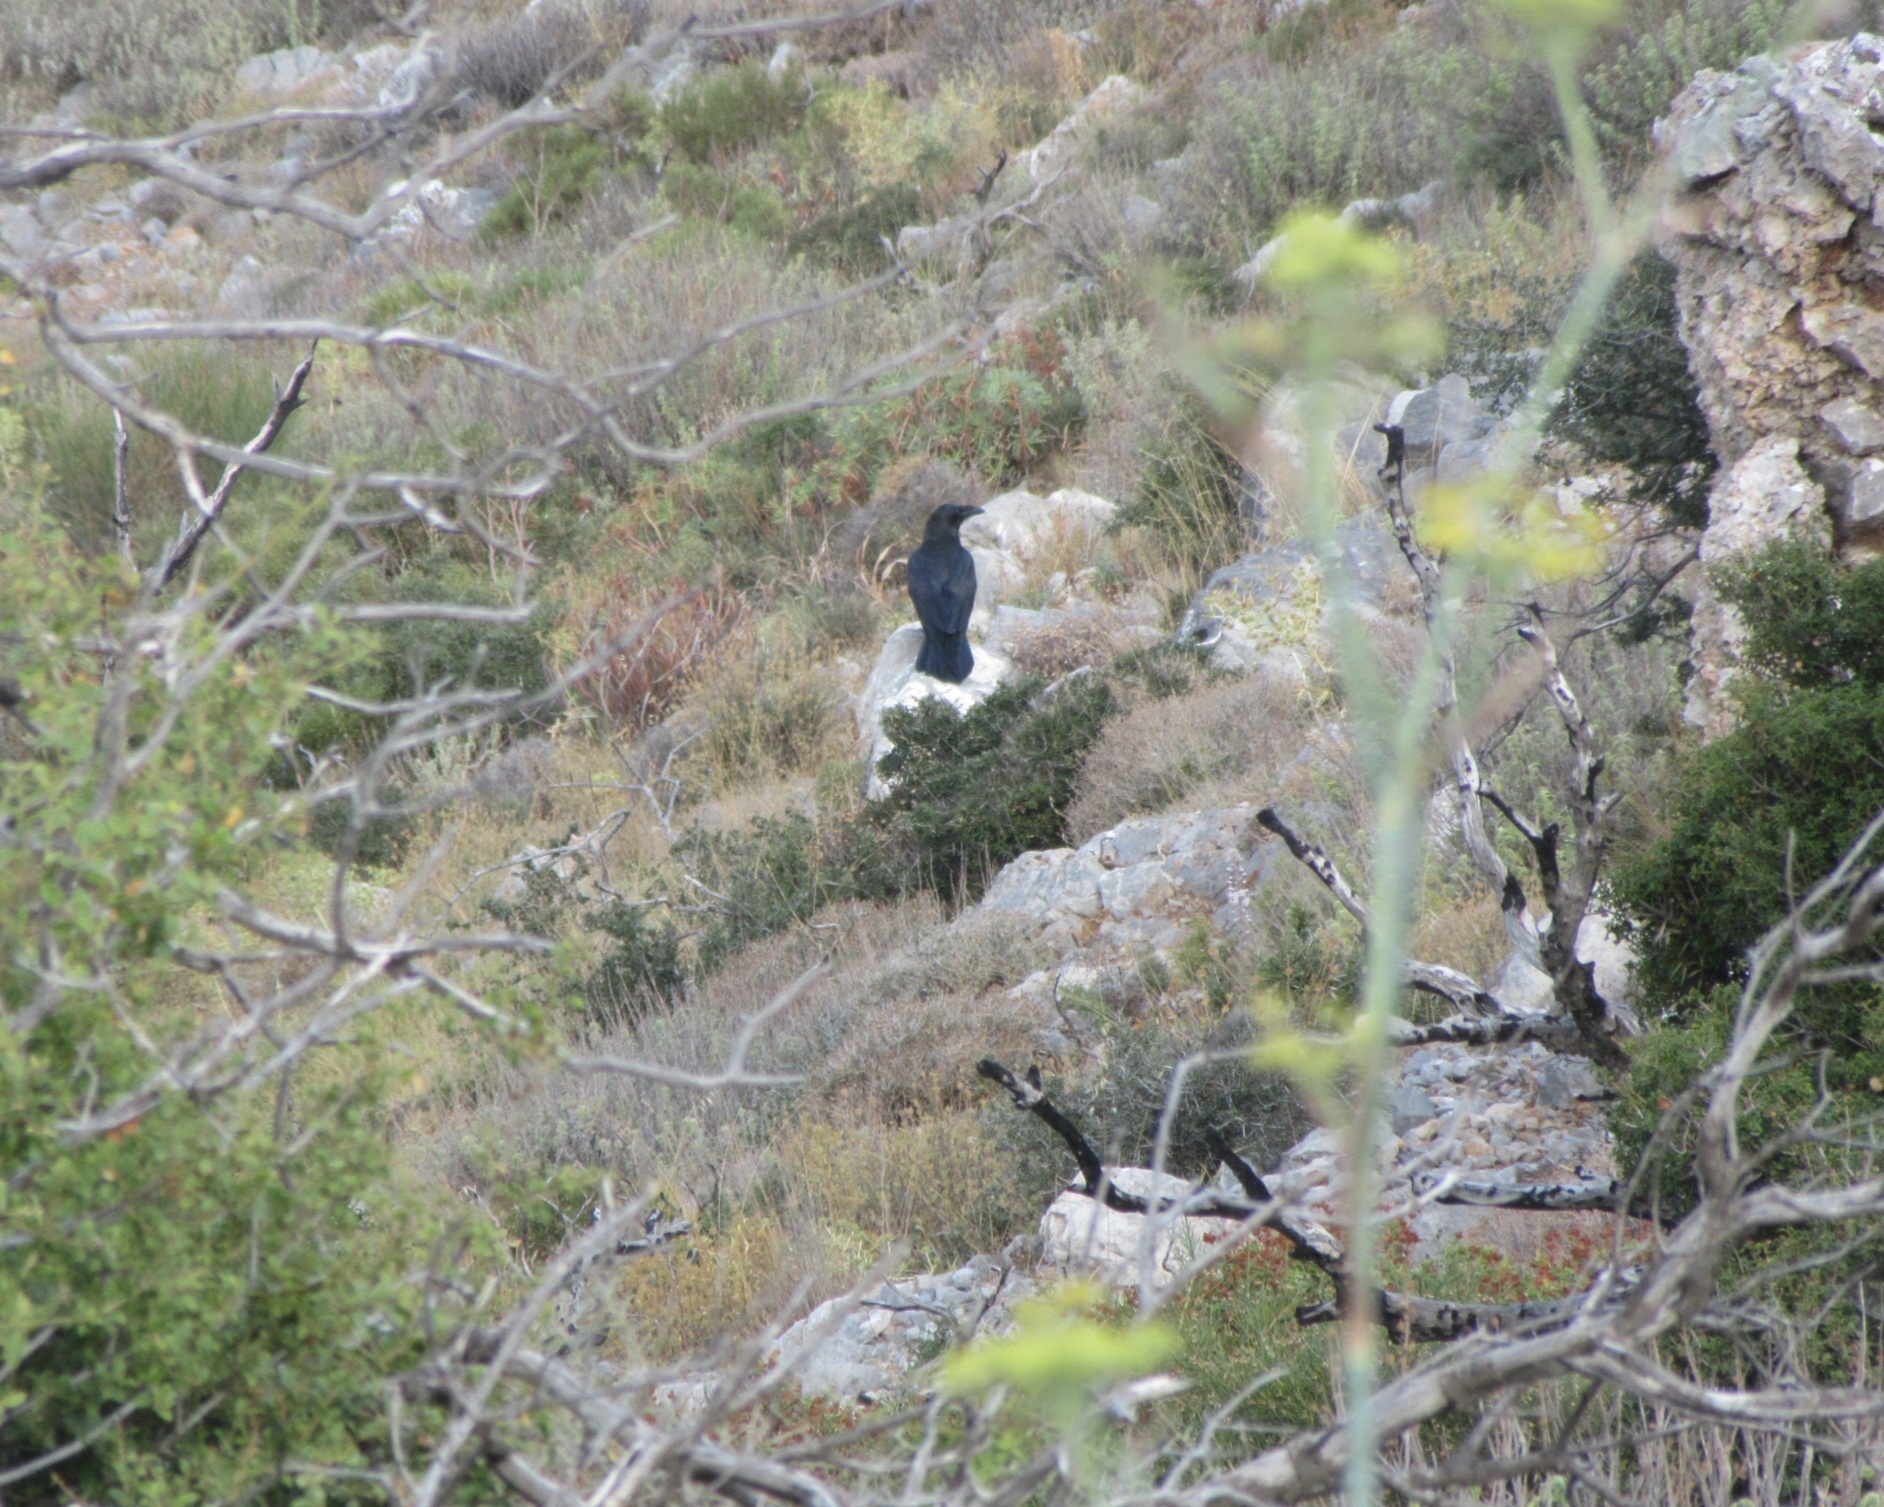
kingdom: Animalia
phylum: Chordata
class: Aves
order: Passeriformes
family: Corvidae
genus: Corvus
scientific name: Corvus corax
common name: Common raven
